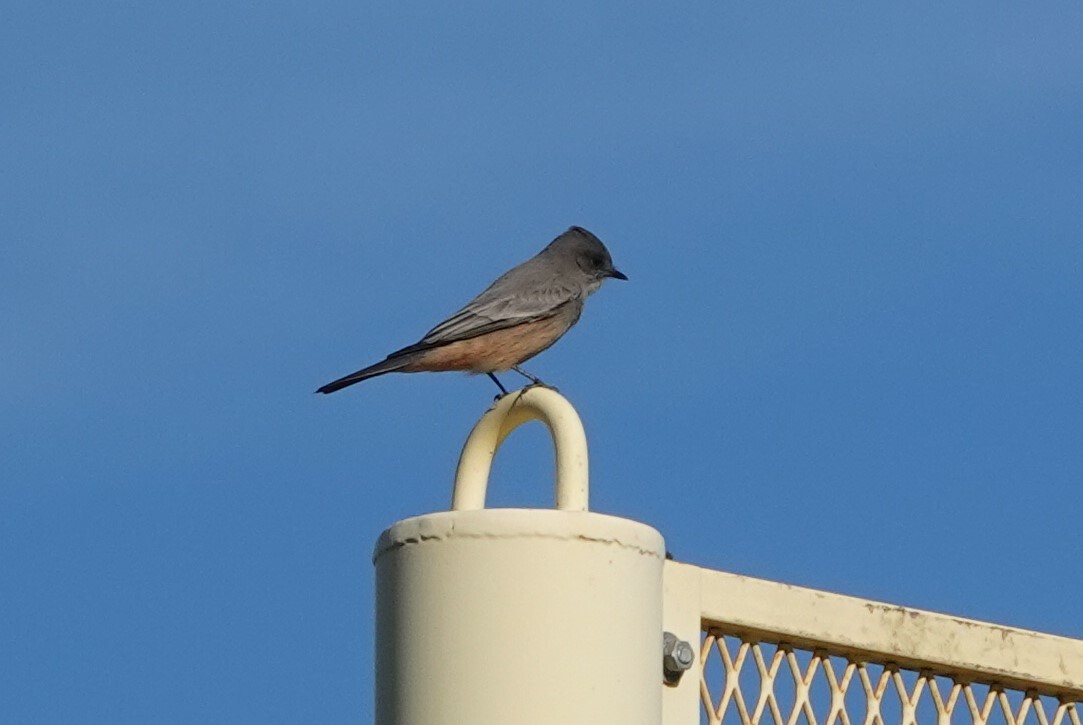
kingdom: Animalia
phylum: Chordata
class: Aves
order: Passeriformes
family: Tyrannidae
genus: Sayornis
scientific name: Sayornis saya
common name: Say's phoebe
